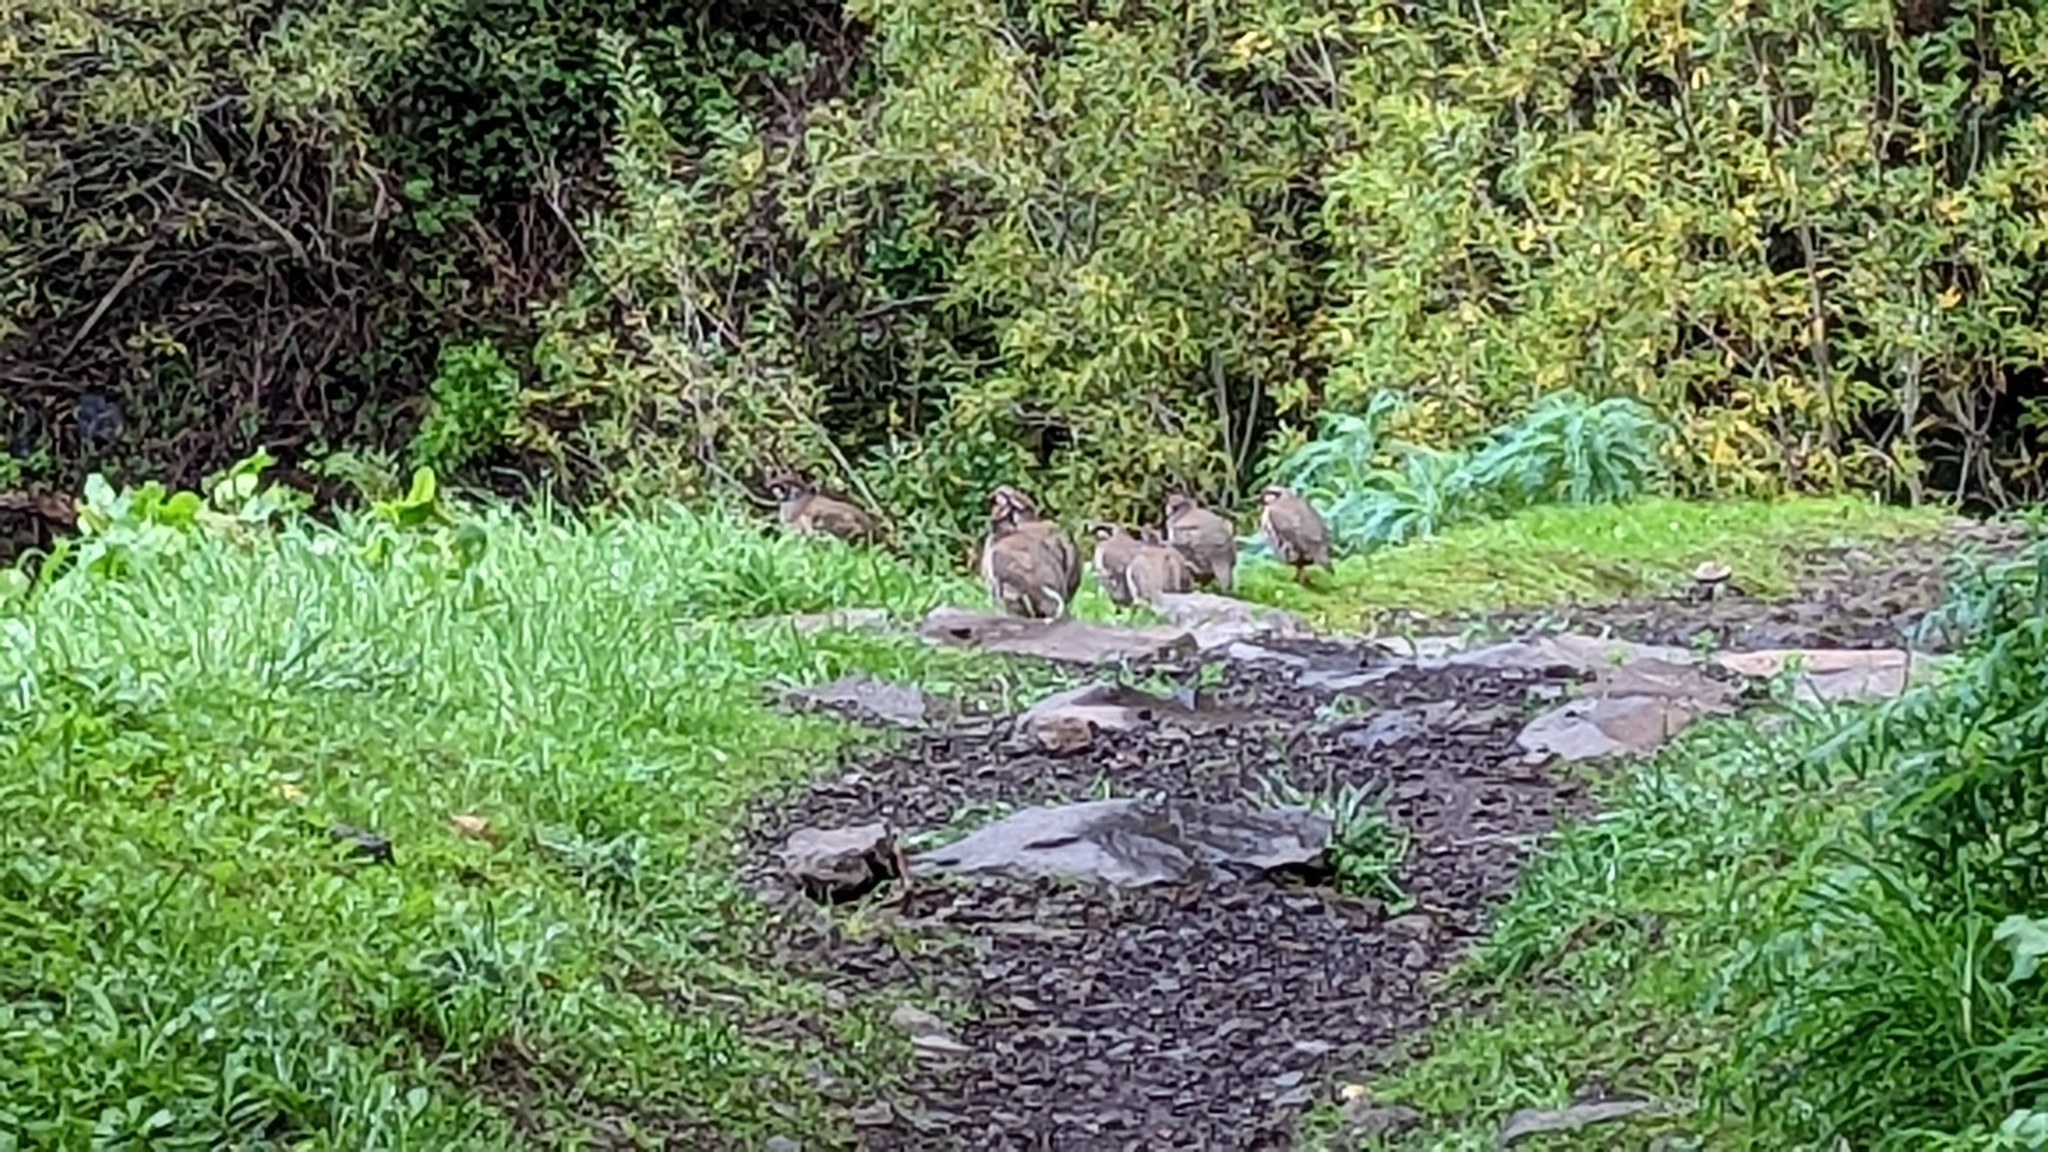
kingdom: Animalia
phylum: Chordata
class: Aves
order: Galliformes
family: Phasianidae
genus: Alectoris
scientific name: Alectoris rufa
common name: Red-legged partridge
